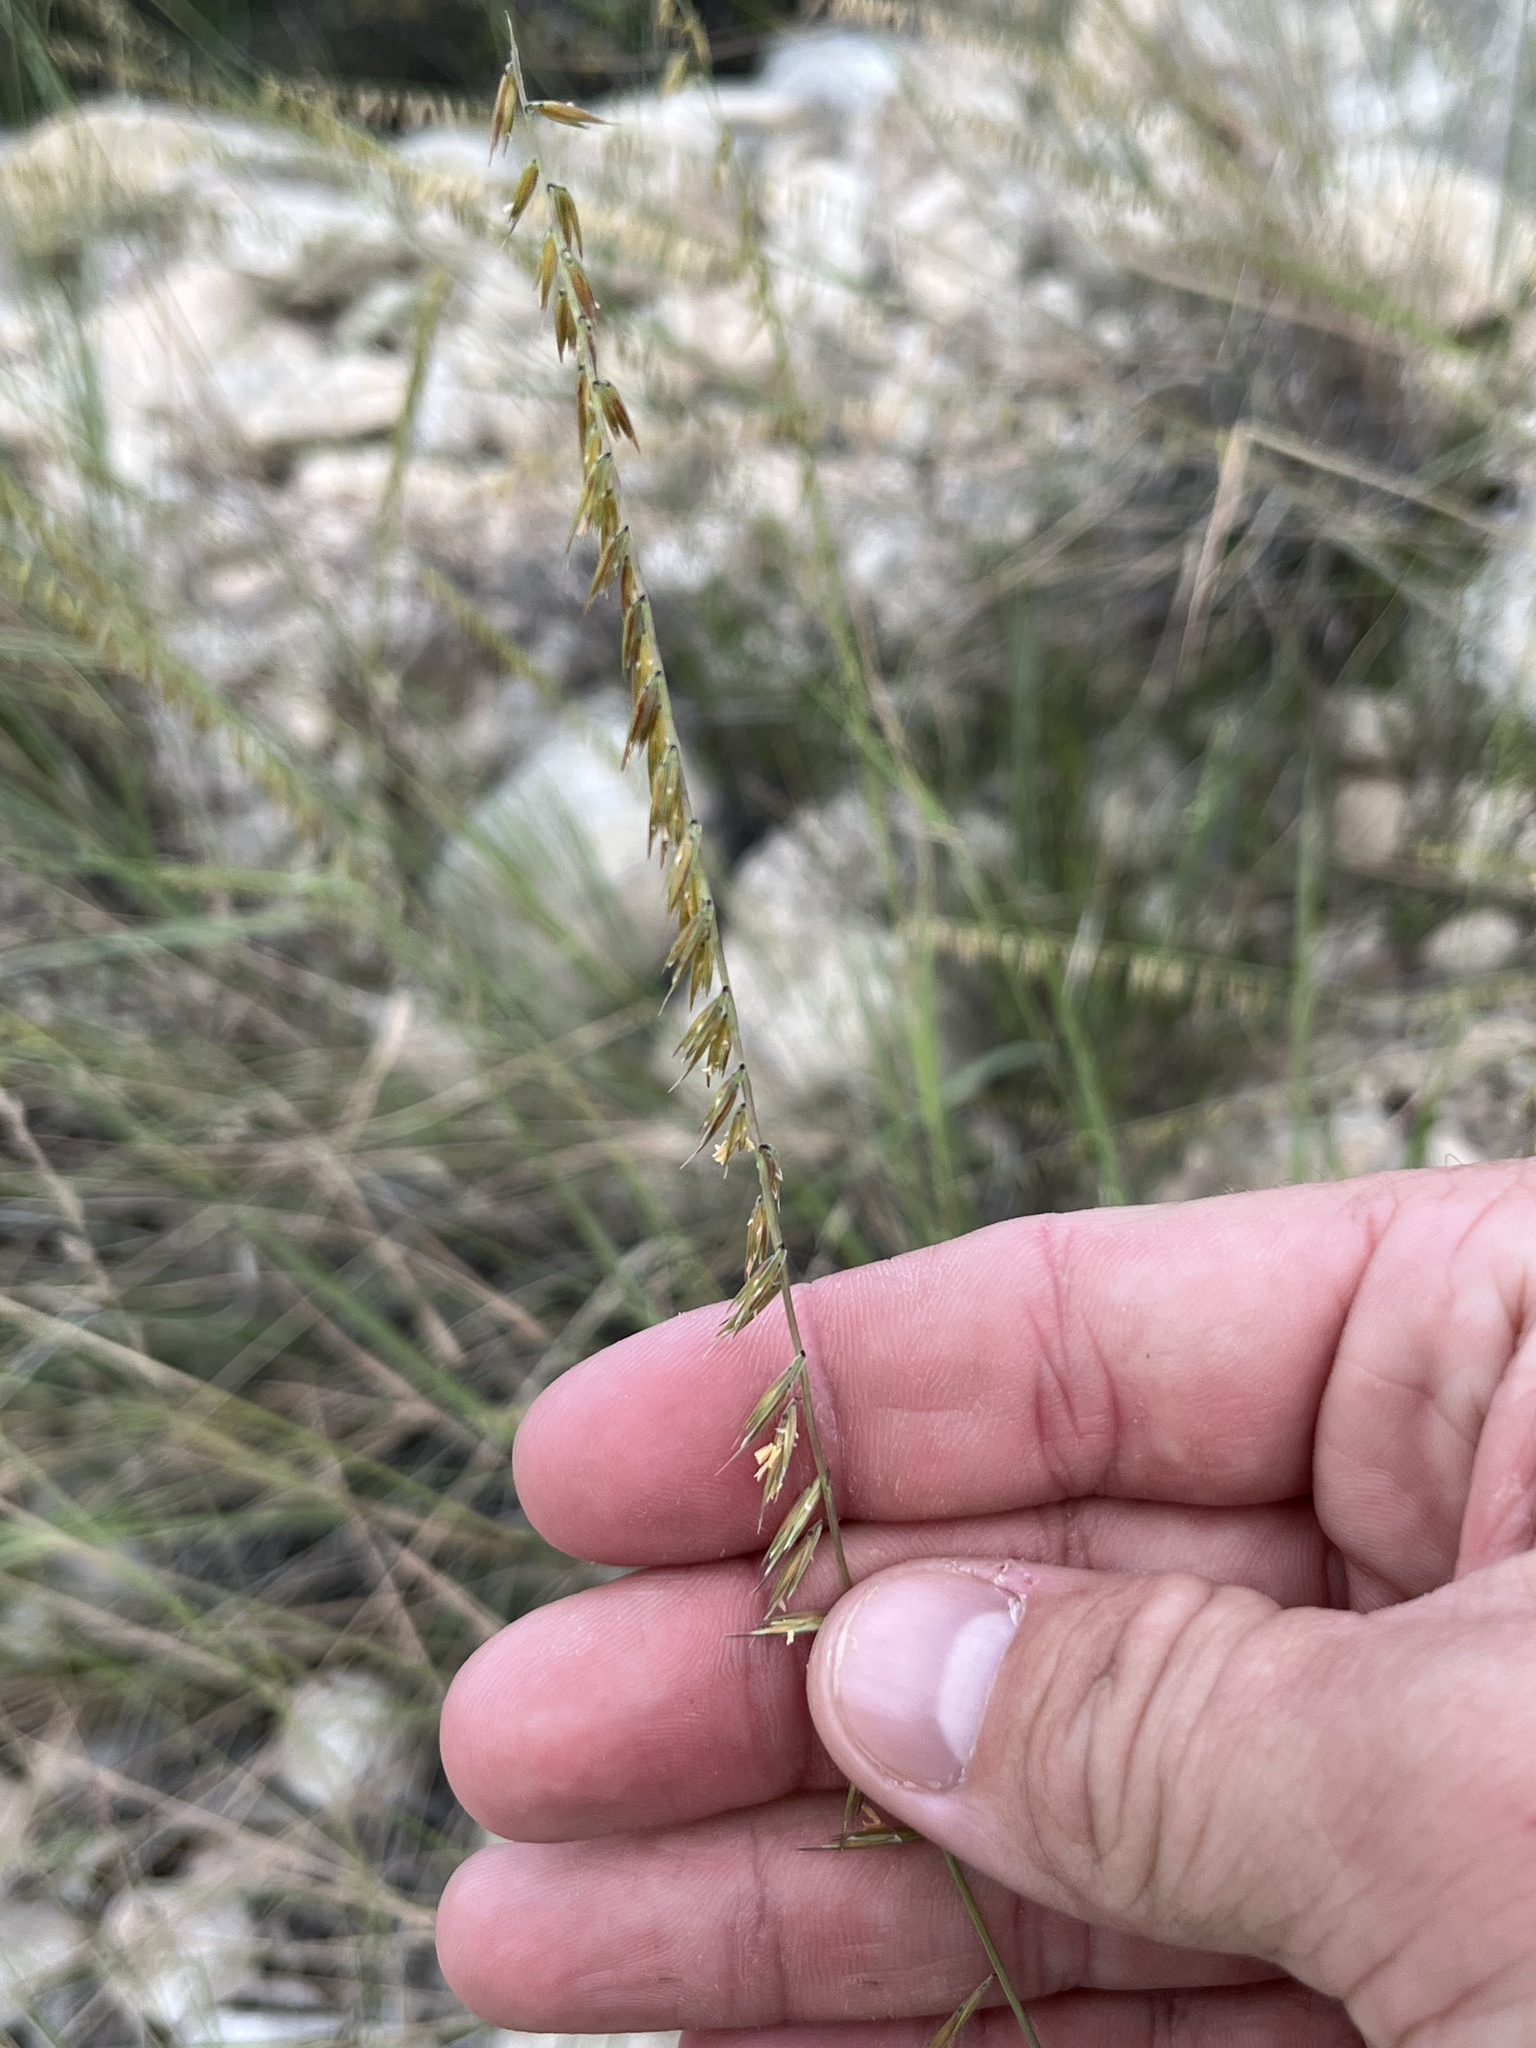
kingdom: Plantae
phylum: Tracheophyta
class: Liliopsida
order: Poales
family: Poaceae
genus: Bouteloua
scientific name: Bouteloua curtipendula
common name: Side-oats grama
